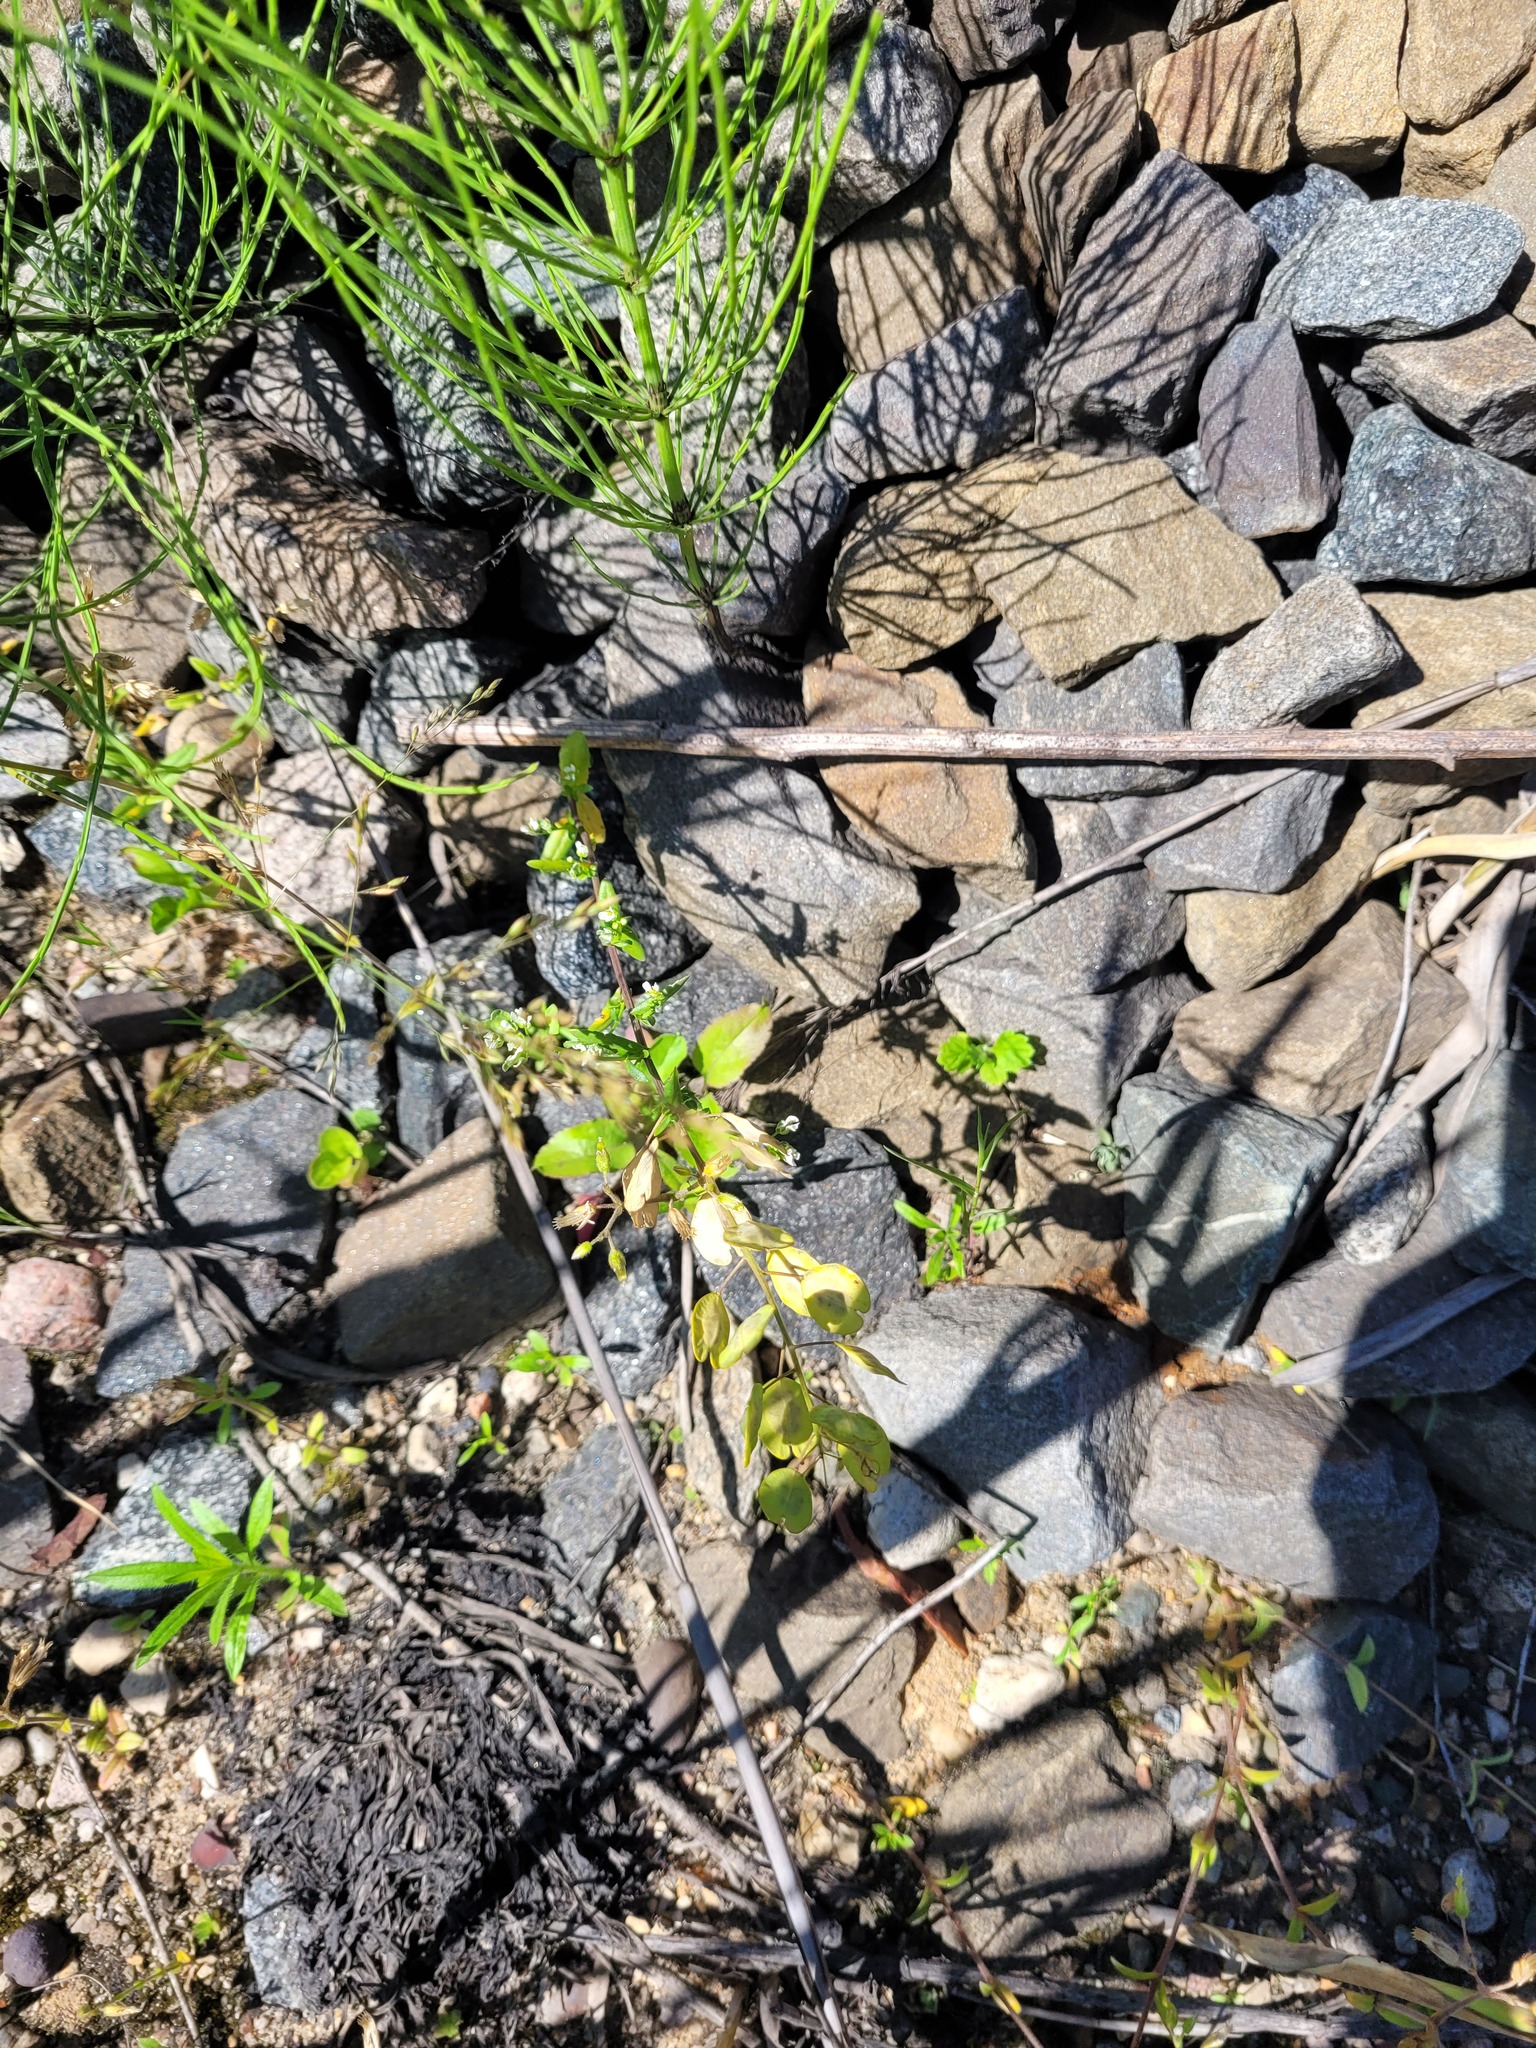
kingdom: Plantae
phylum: Tracheophyta
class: Magnoliopsida
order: Brassicales
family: Brassicaceae
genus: Thlaspi
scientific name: Thlaspi arvense
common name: Field pennycress
